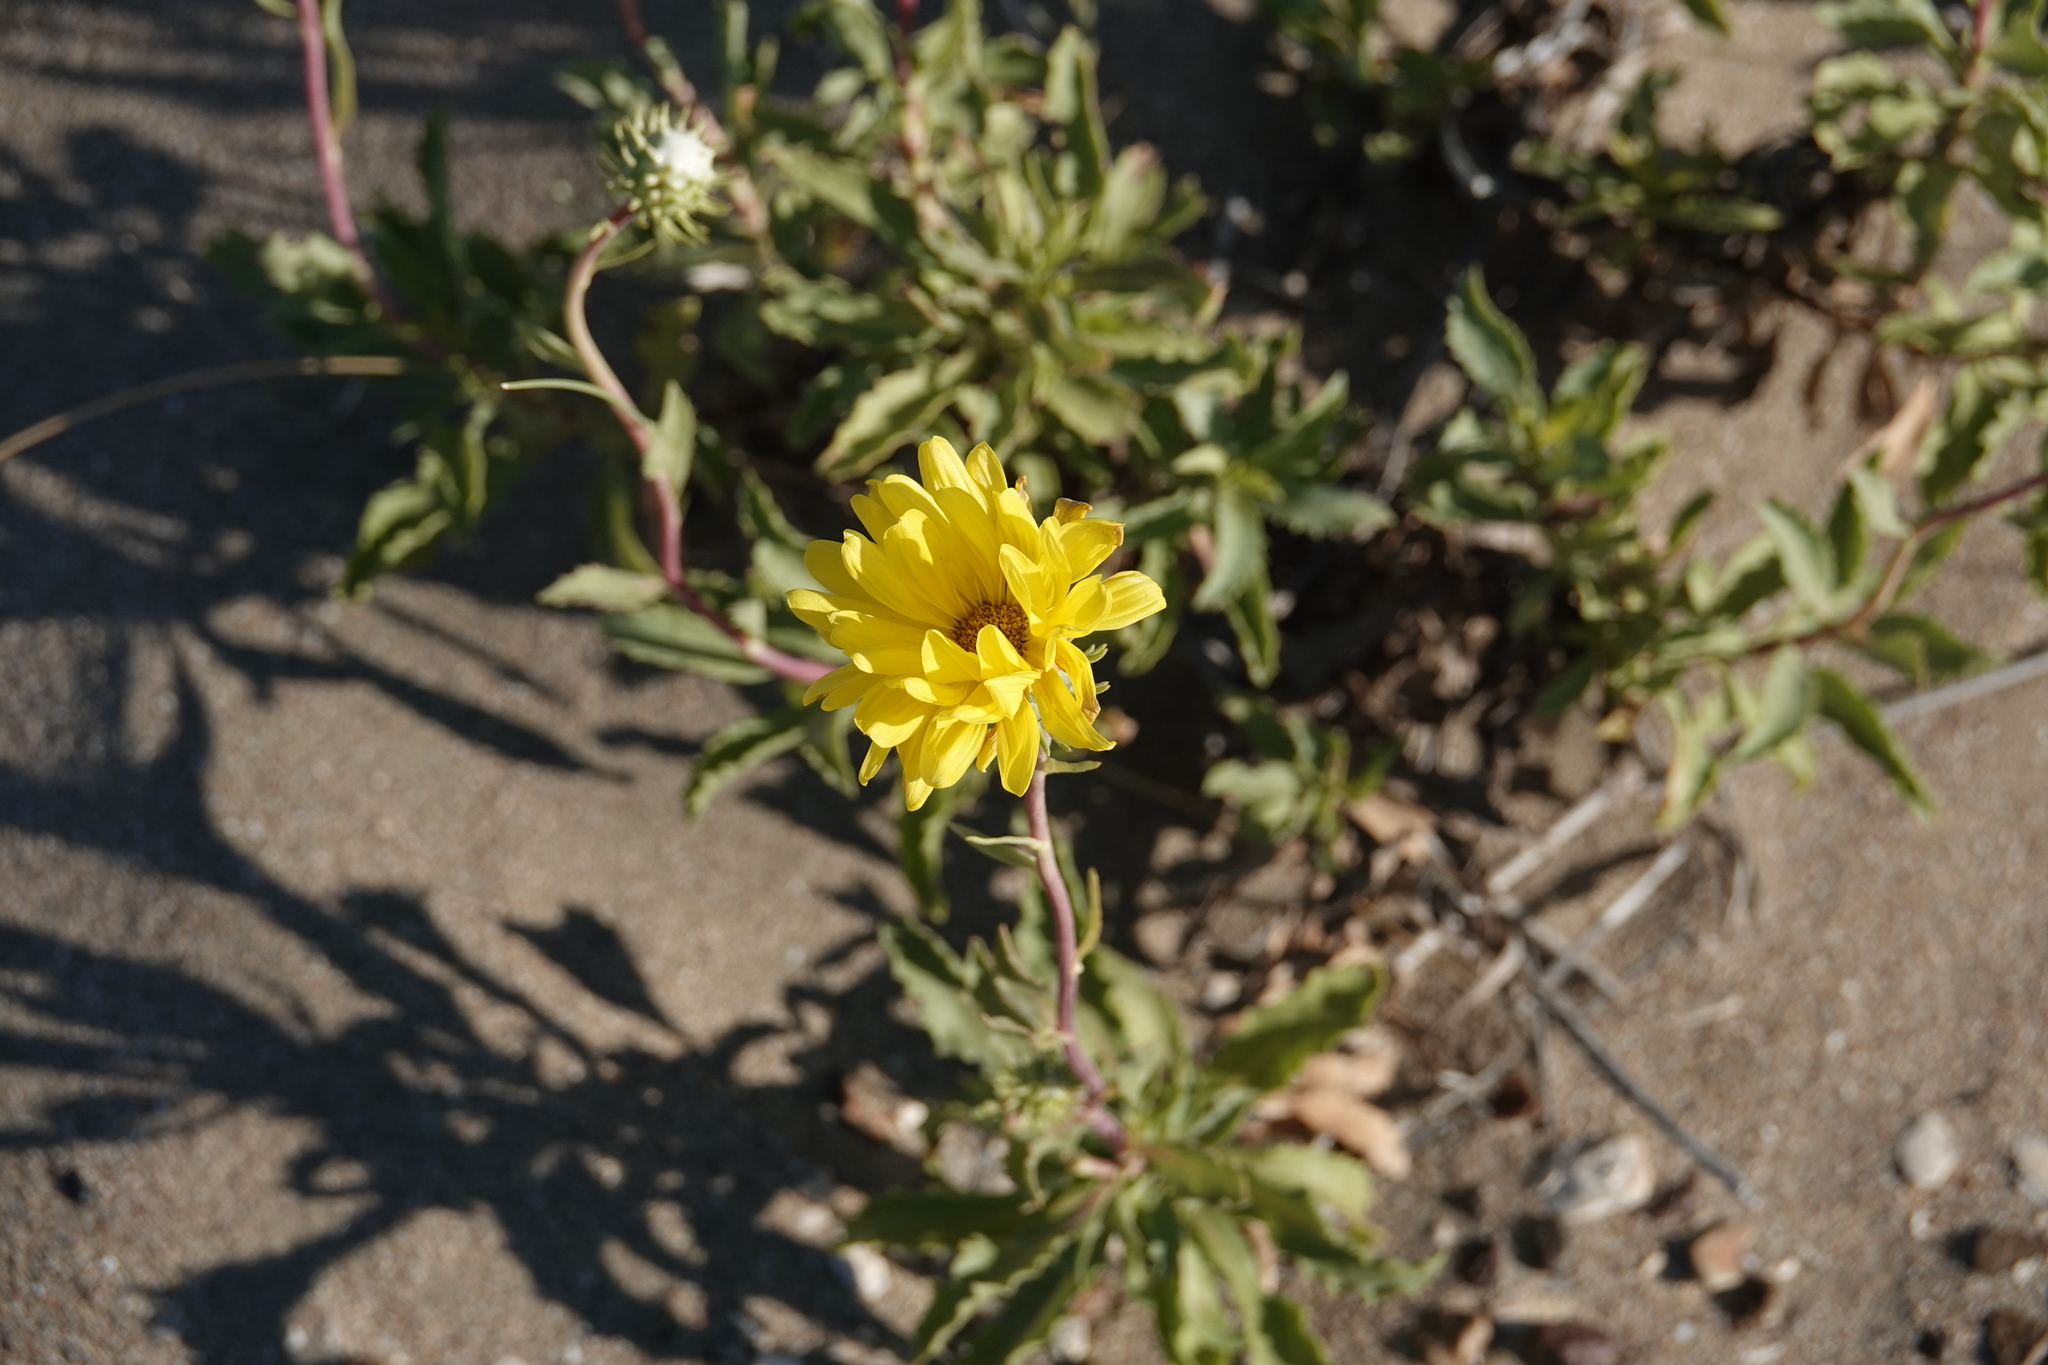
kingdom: Plantae
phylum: Tracheophyta
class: Magnoliopsida
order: Asterales
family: Asteraceae
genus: Grindelia
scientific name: Grindelia chiloensis
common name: Shrubby gumweed
